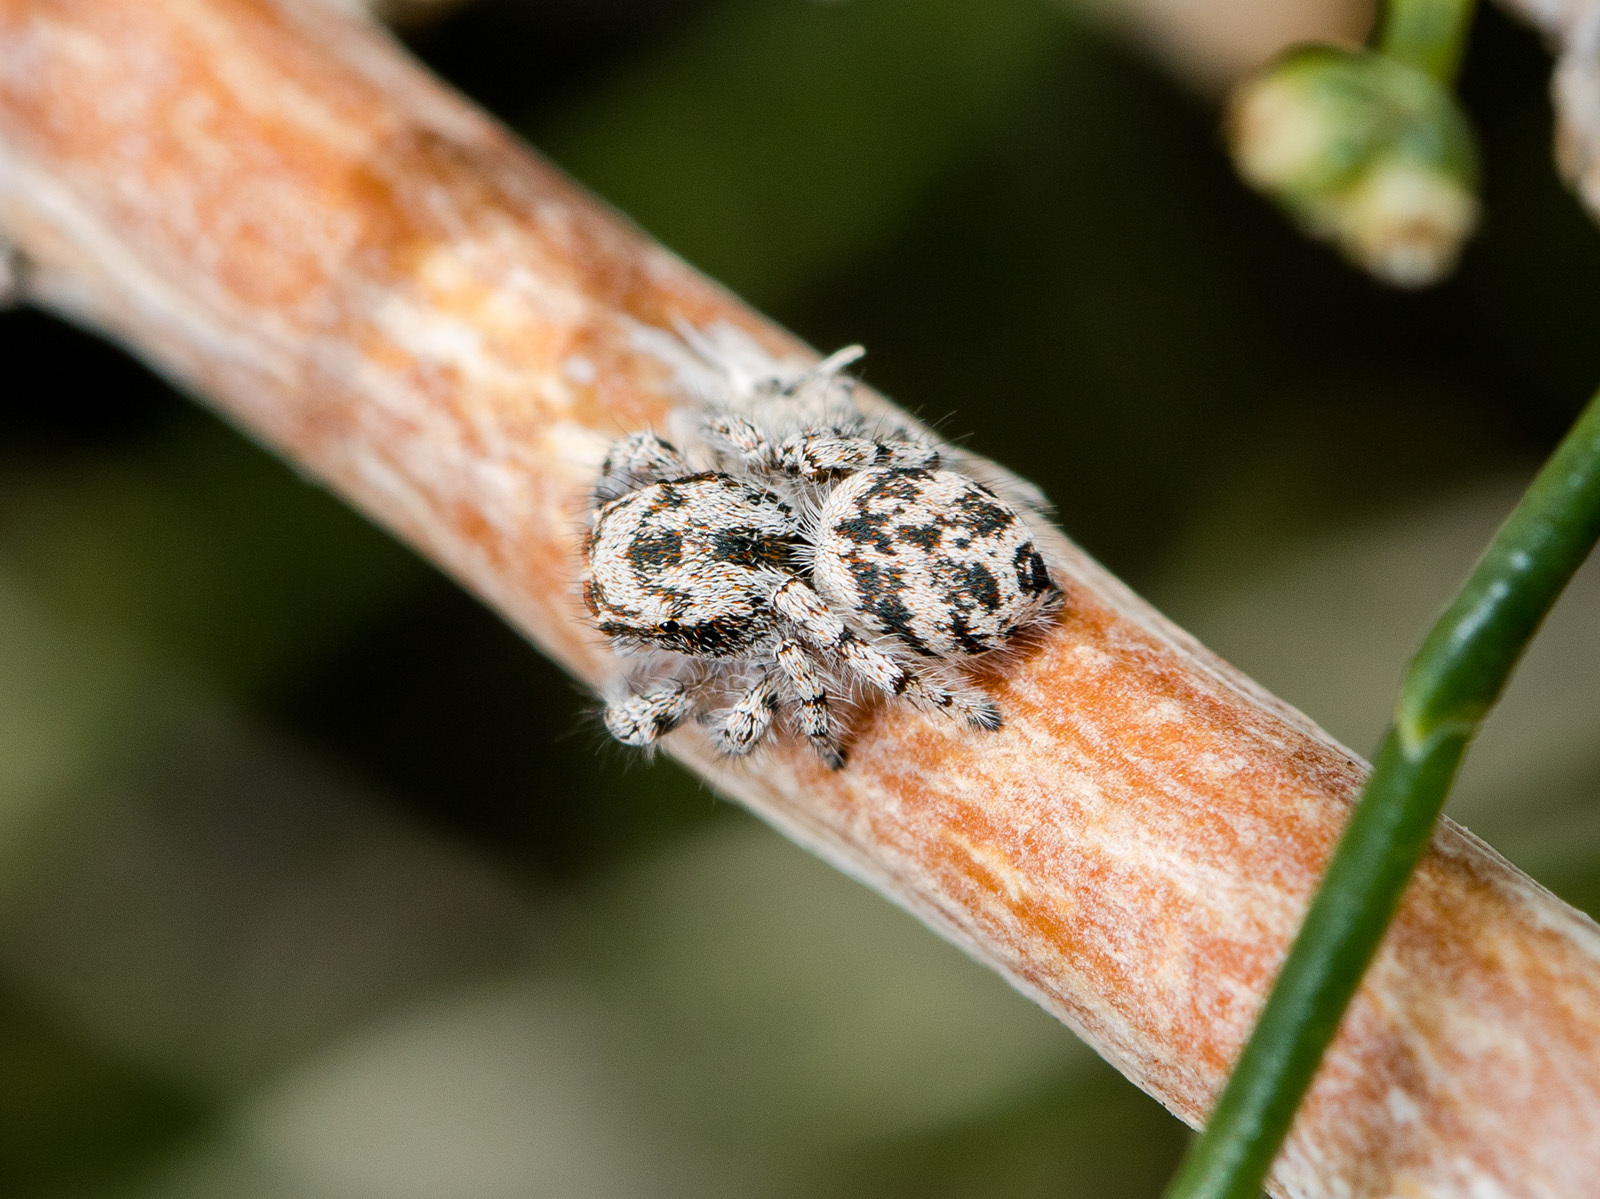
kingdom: Animalia
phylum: Arthropoda
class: Arachnida
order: Araneae
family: Salticidae
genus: Pseudomogrus
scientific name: Pseudomogrus dalaensis
